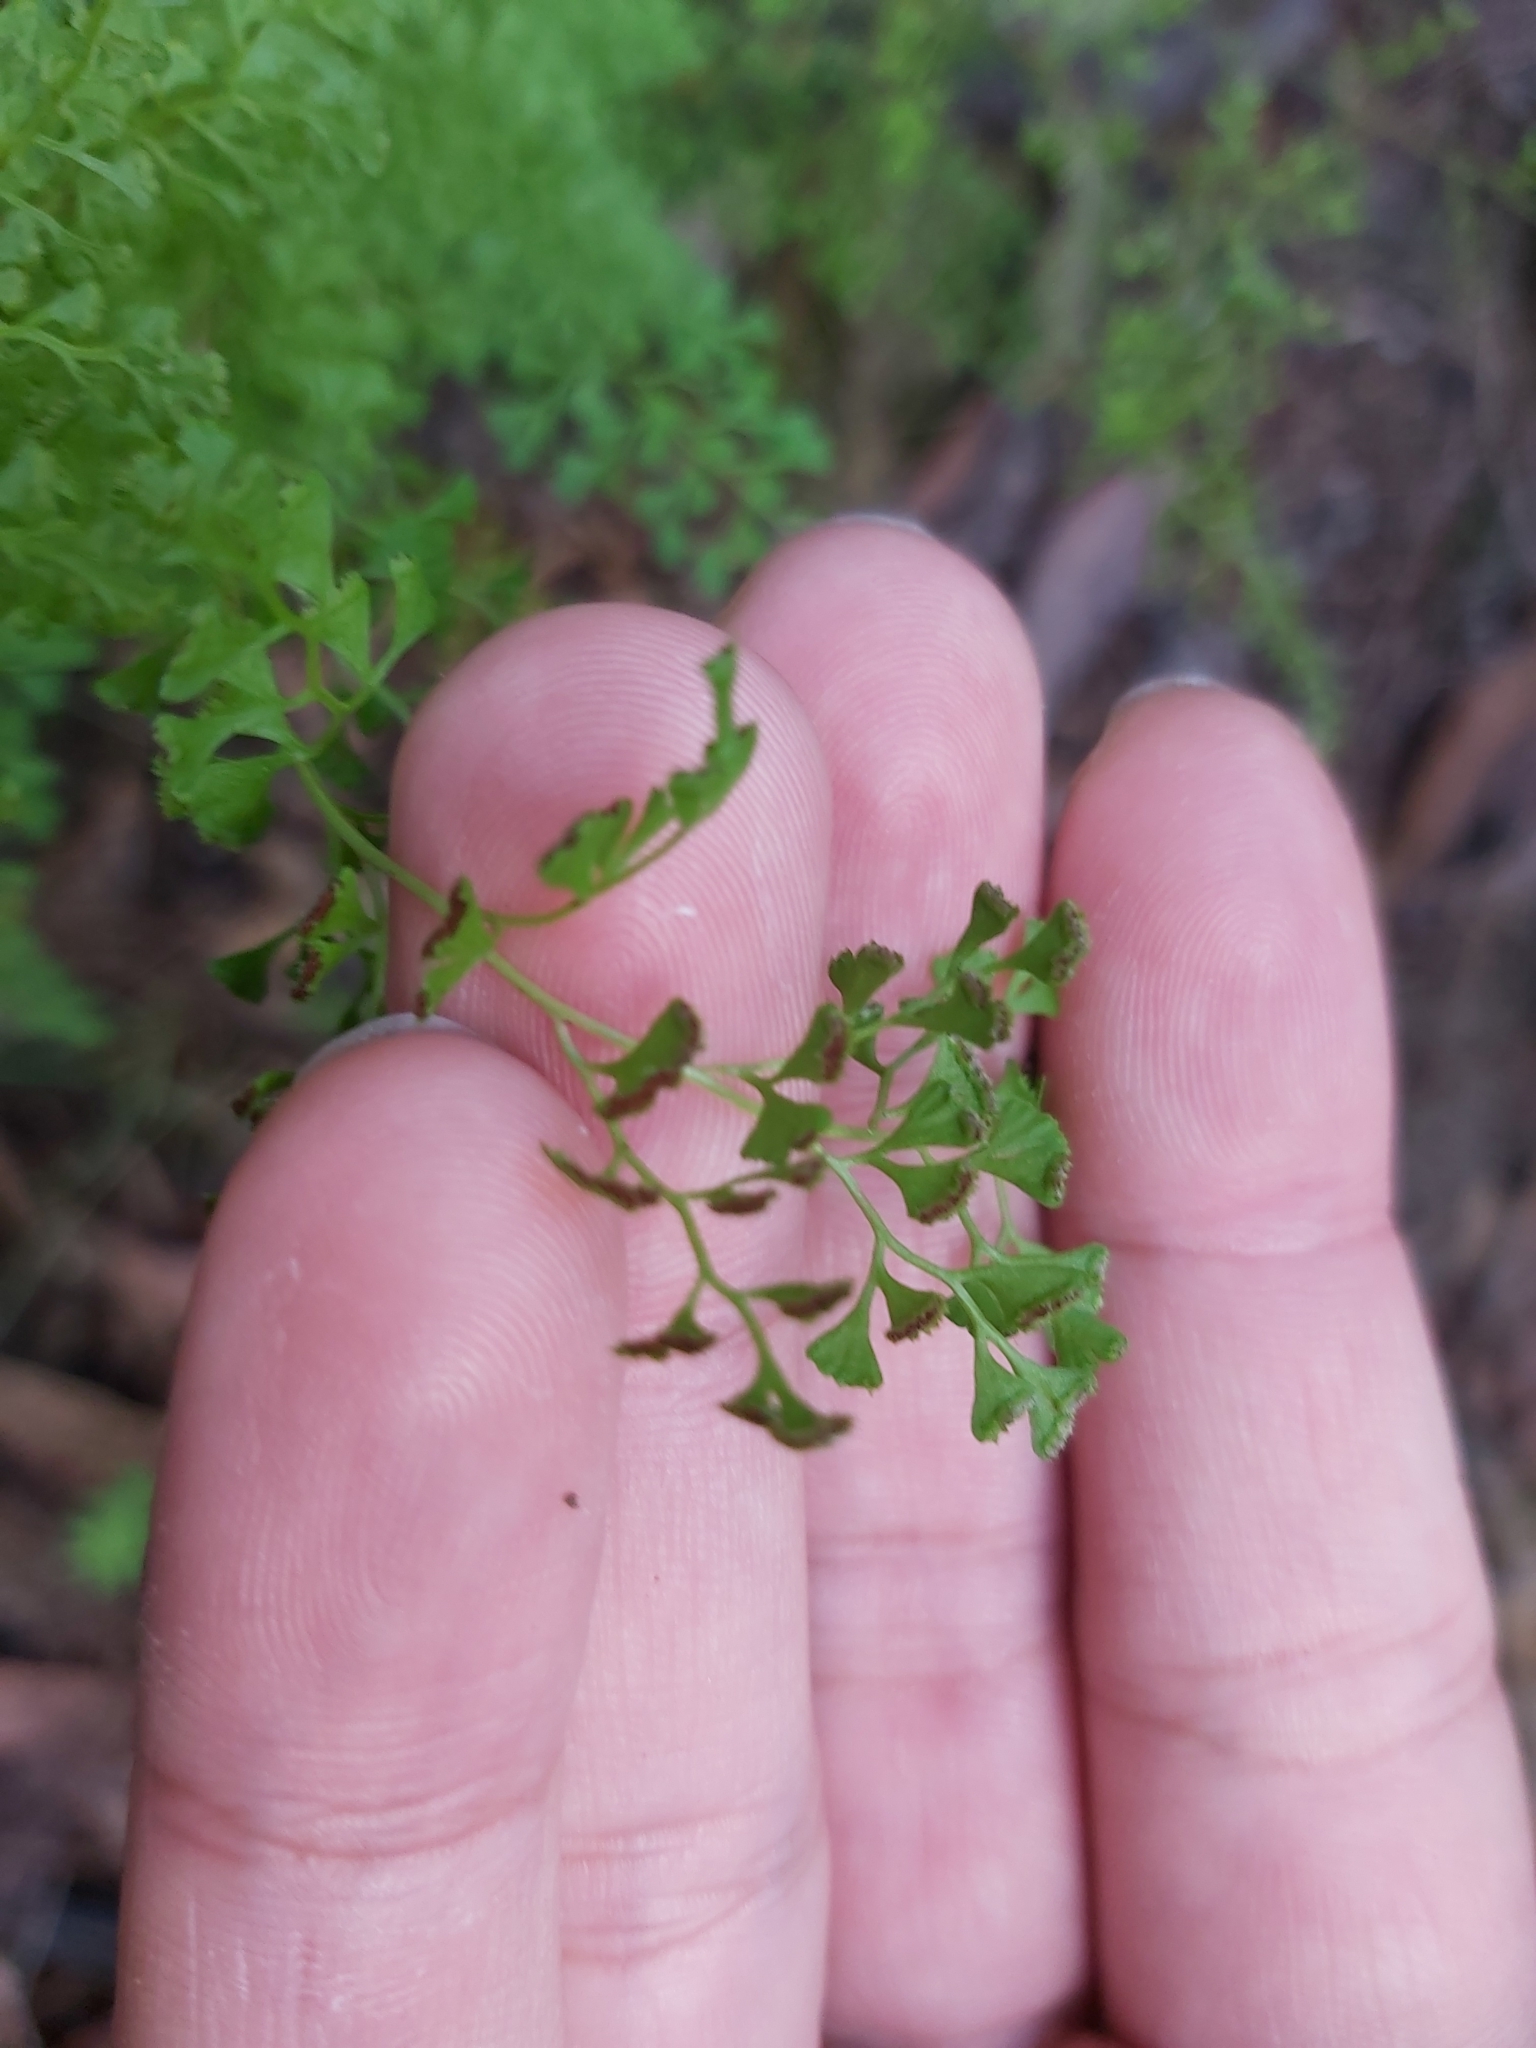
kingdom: Plantae
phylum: Tracheophyta
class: Polypodiopsida
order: Polypodiales
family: Lindsaeaceae
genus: Lindsaea
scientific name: Lindsaea microphylla
